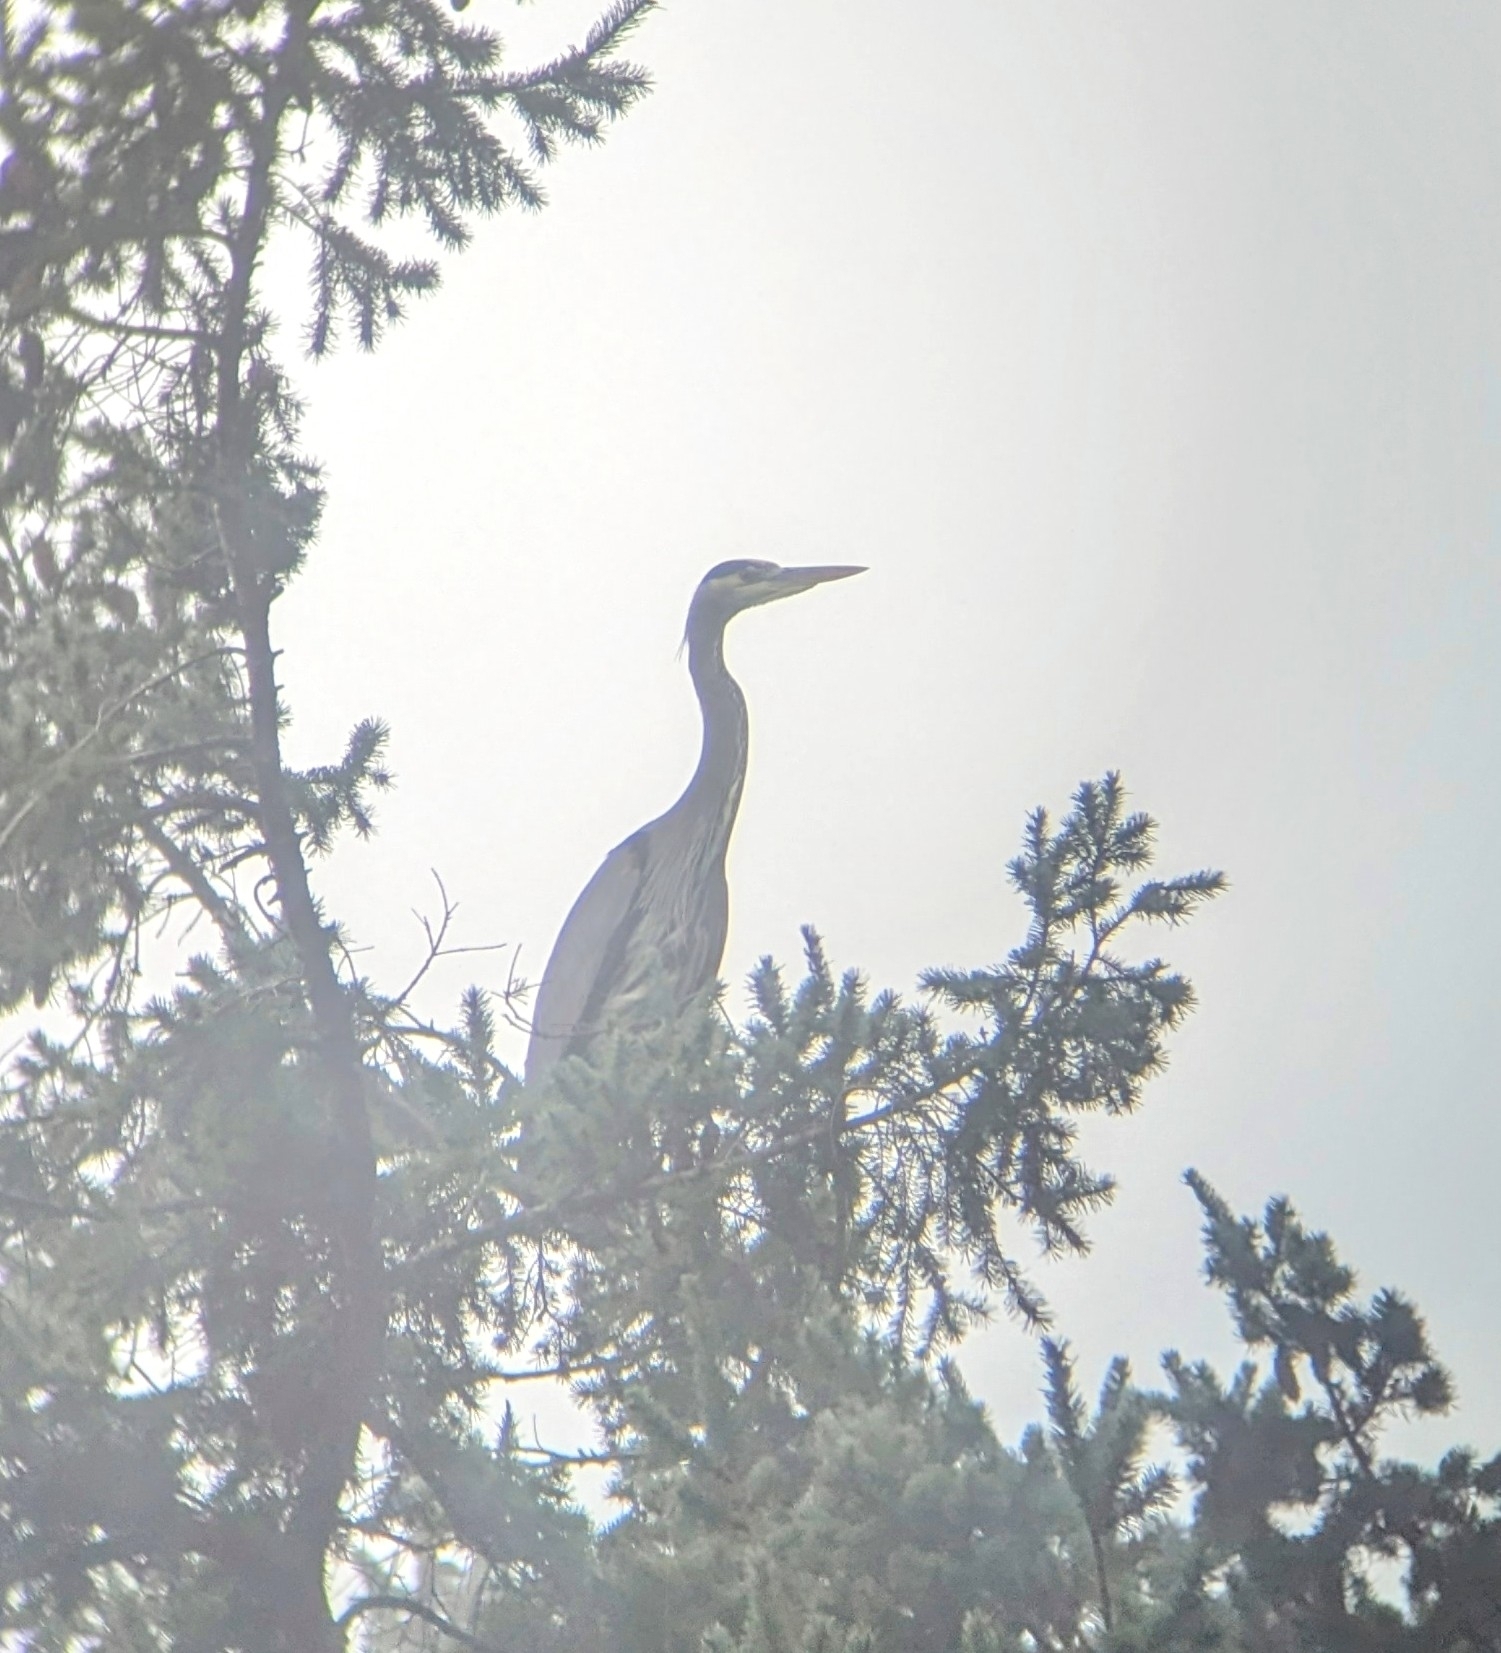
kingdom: Animalia
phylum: Chordata
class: Aves
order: Pelecaniformes
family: Ardeidae
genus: Ardea
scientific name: Ardea herodias
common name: Great blue heron
